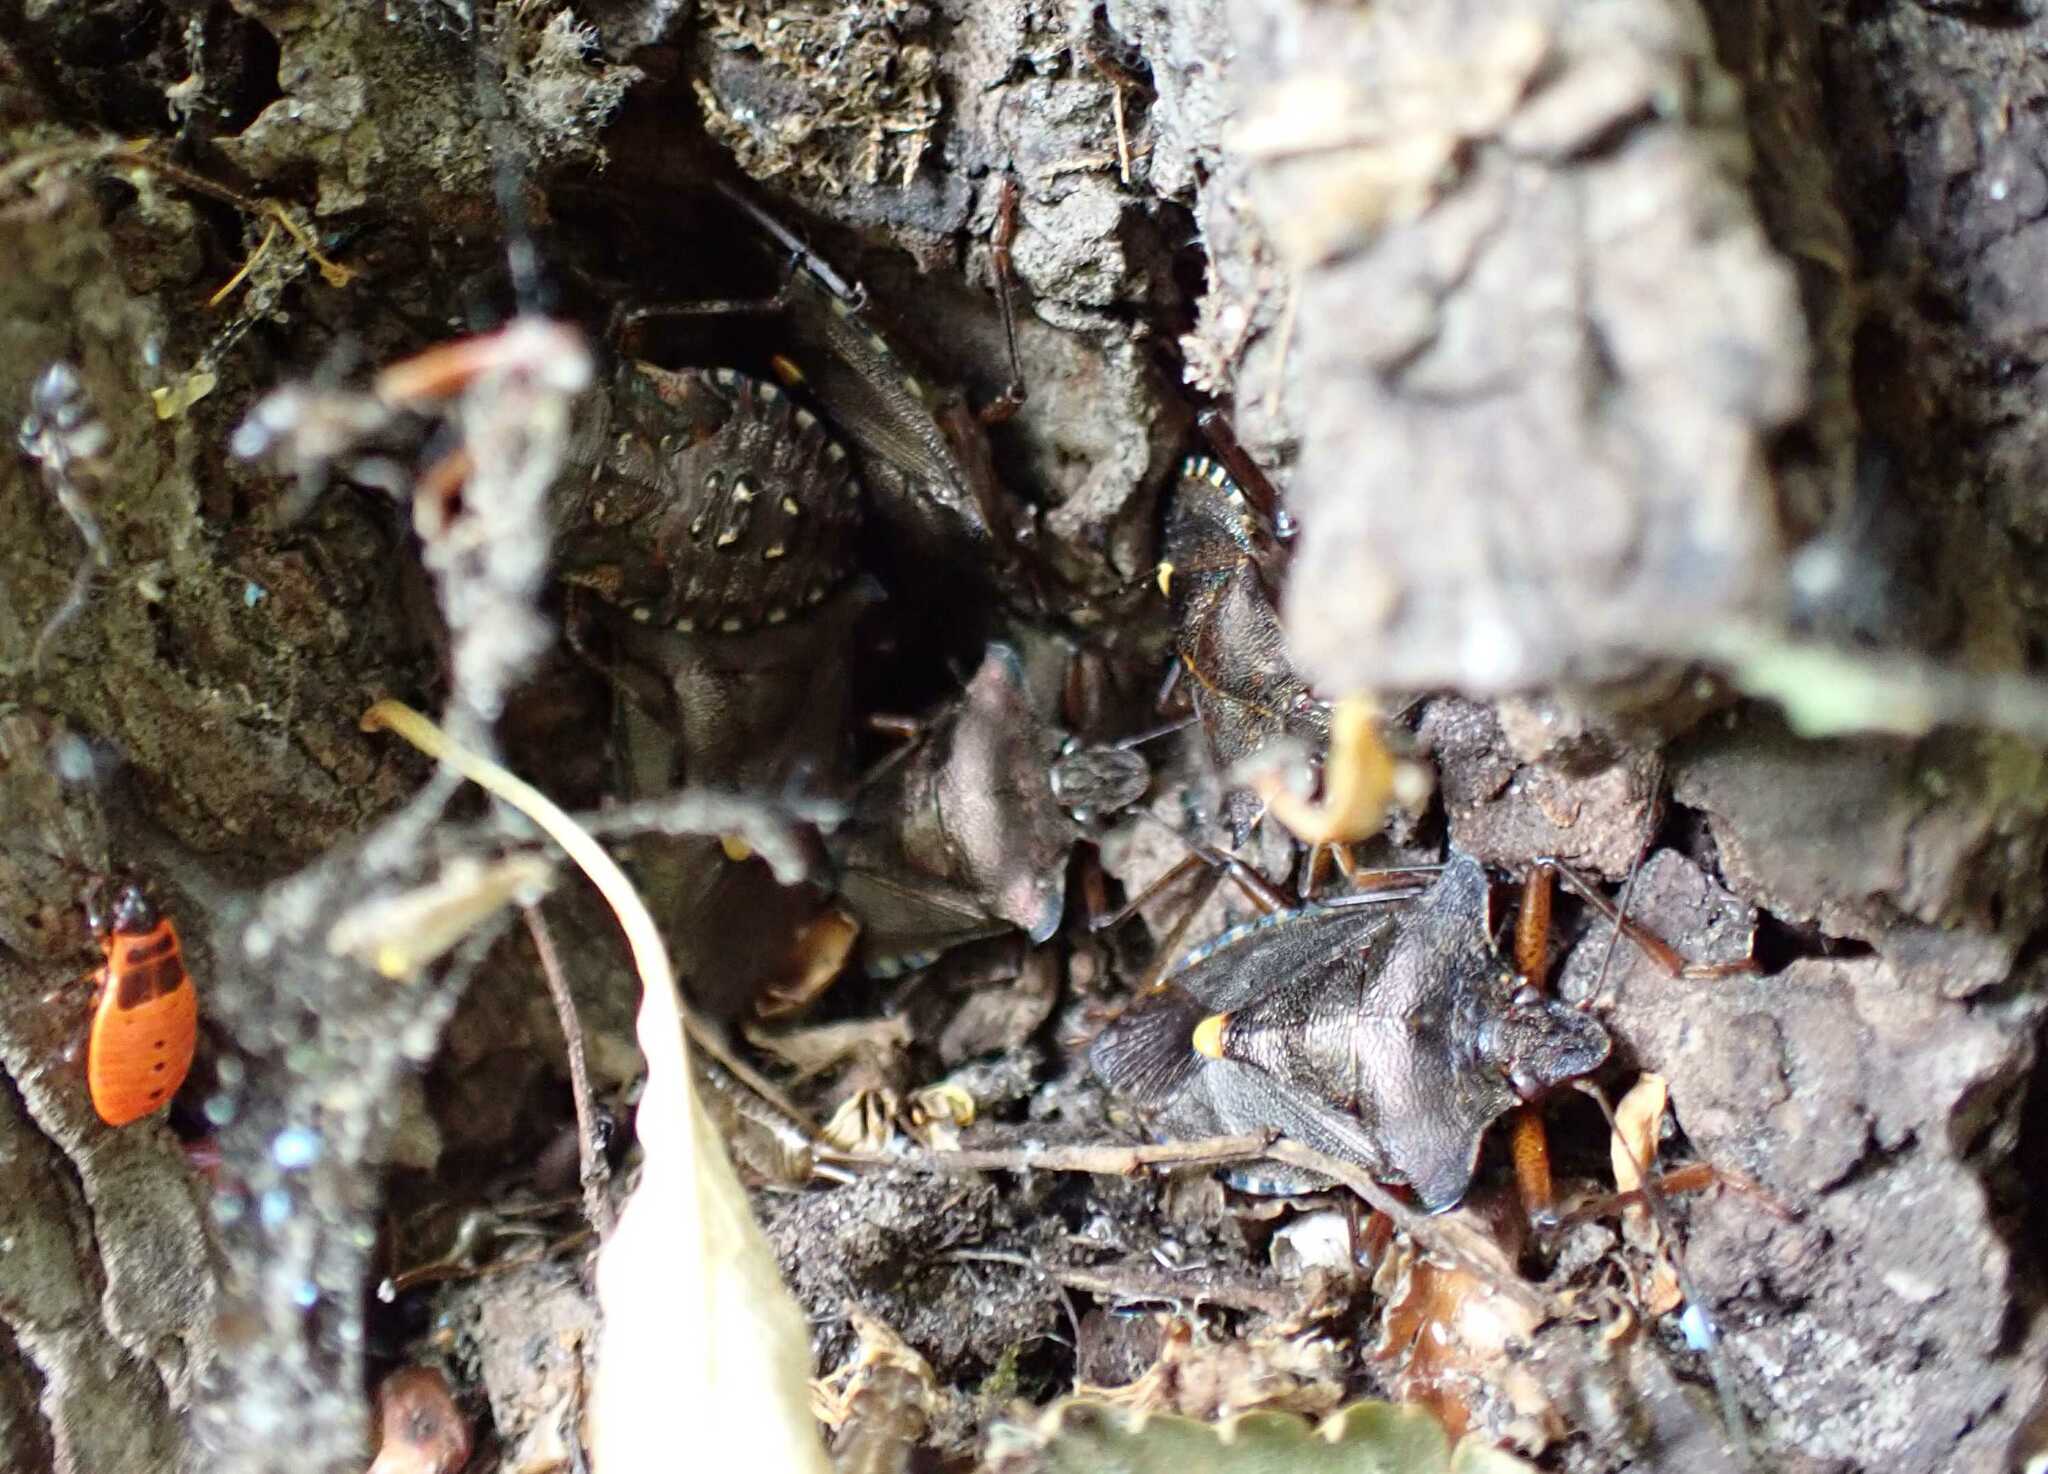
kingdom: Animalia
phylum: Arthropoda
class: Insecta
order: Hemiptera
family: Pentatomidae
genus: Pentatoma
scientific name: Pentatoma rufipes
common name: Forest bug
